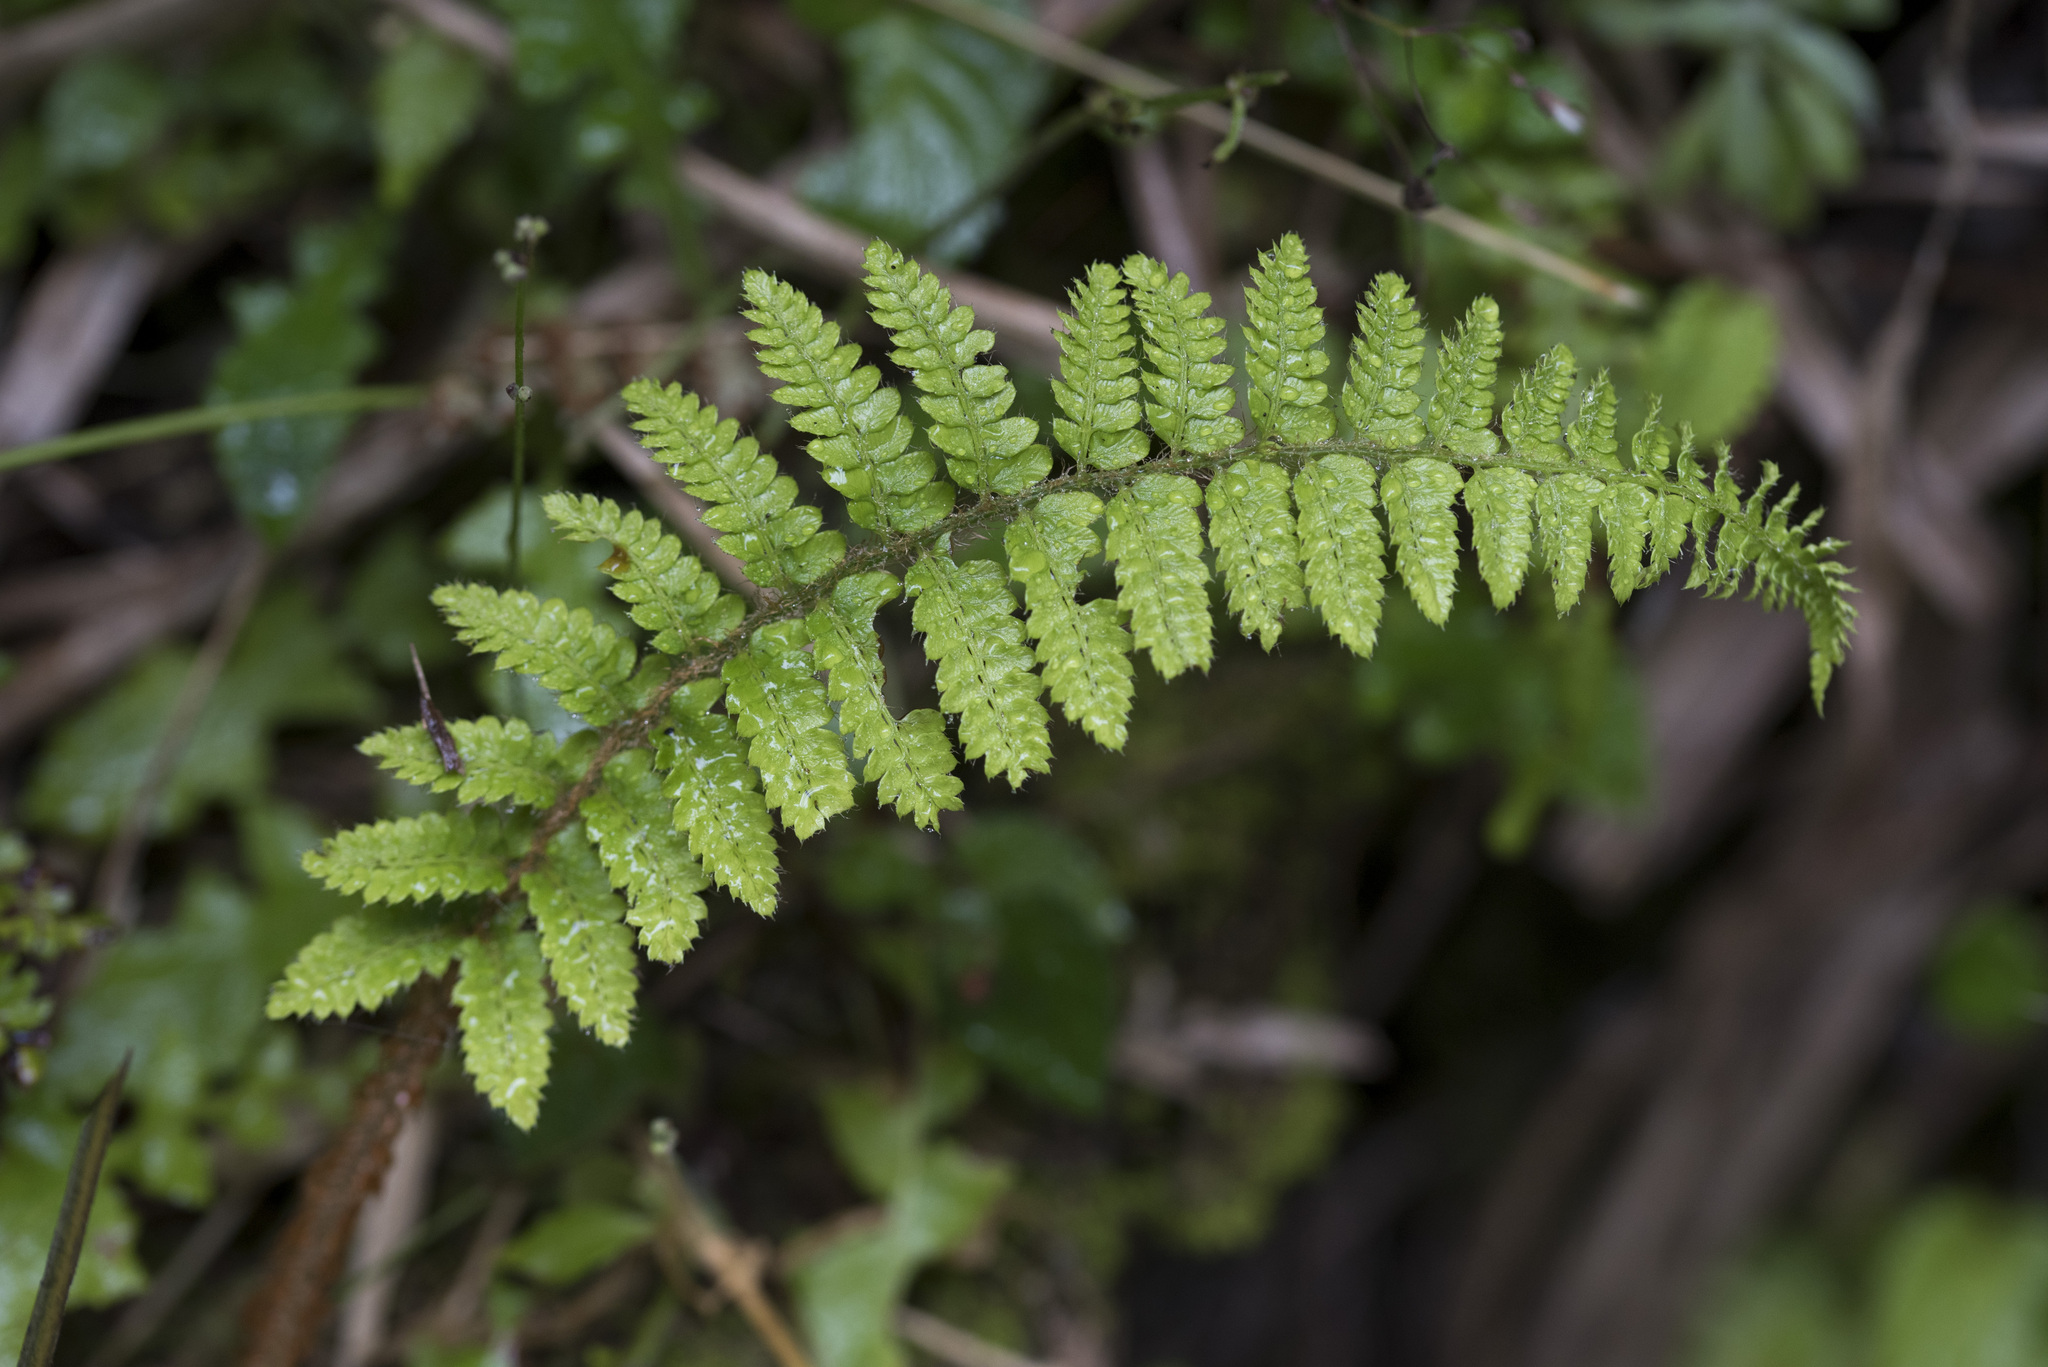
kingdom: Plantae
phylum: Tracheophyta
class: Polypodiopsida
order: Polypodiales
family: Dryopteridaceae
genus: Polystichum
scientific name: Polystichum parvipinnulum
